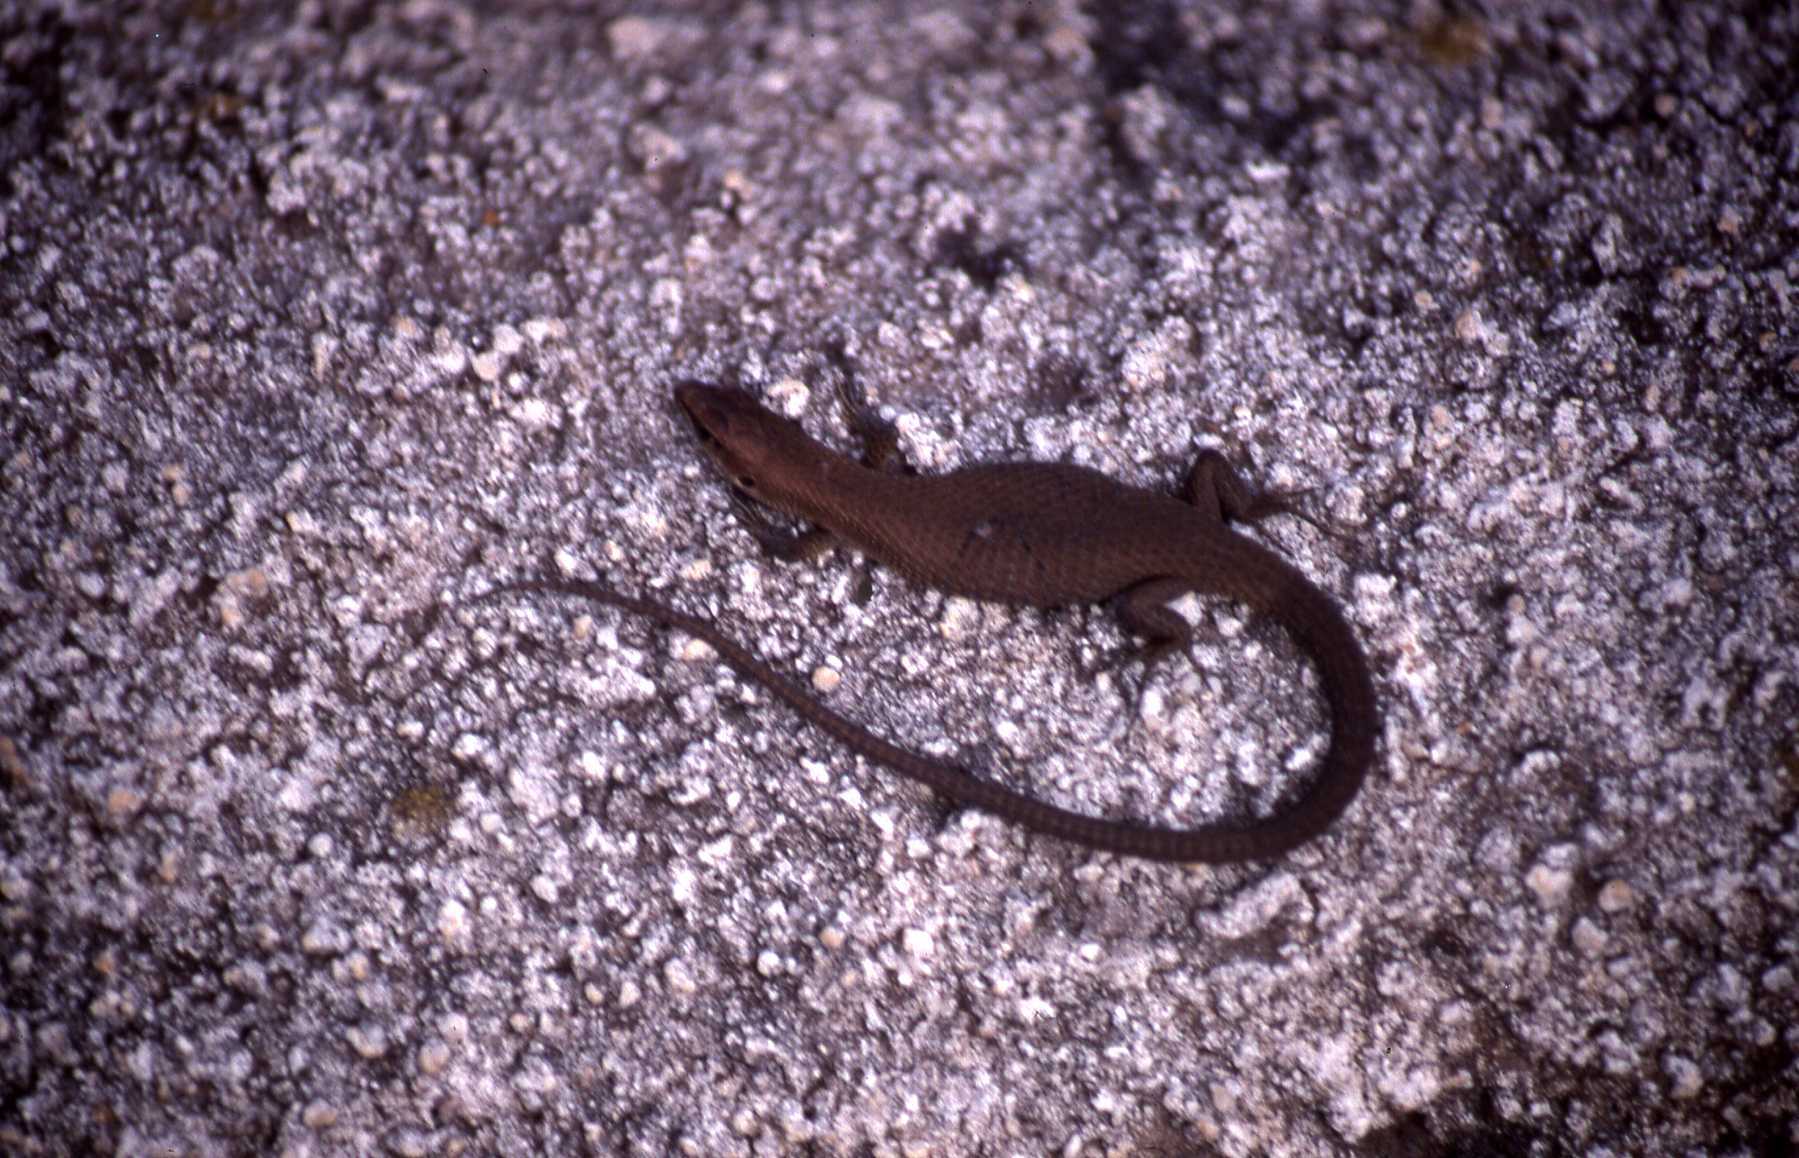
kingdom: Animalia
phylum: Chordata
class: Squamata
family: Lacertidae
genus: Algyroides
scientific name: Algyroides moreoticus
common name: Greek algyroides
